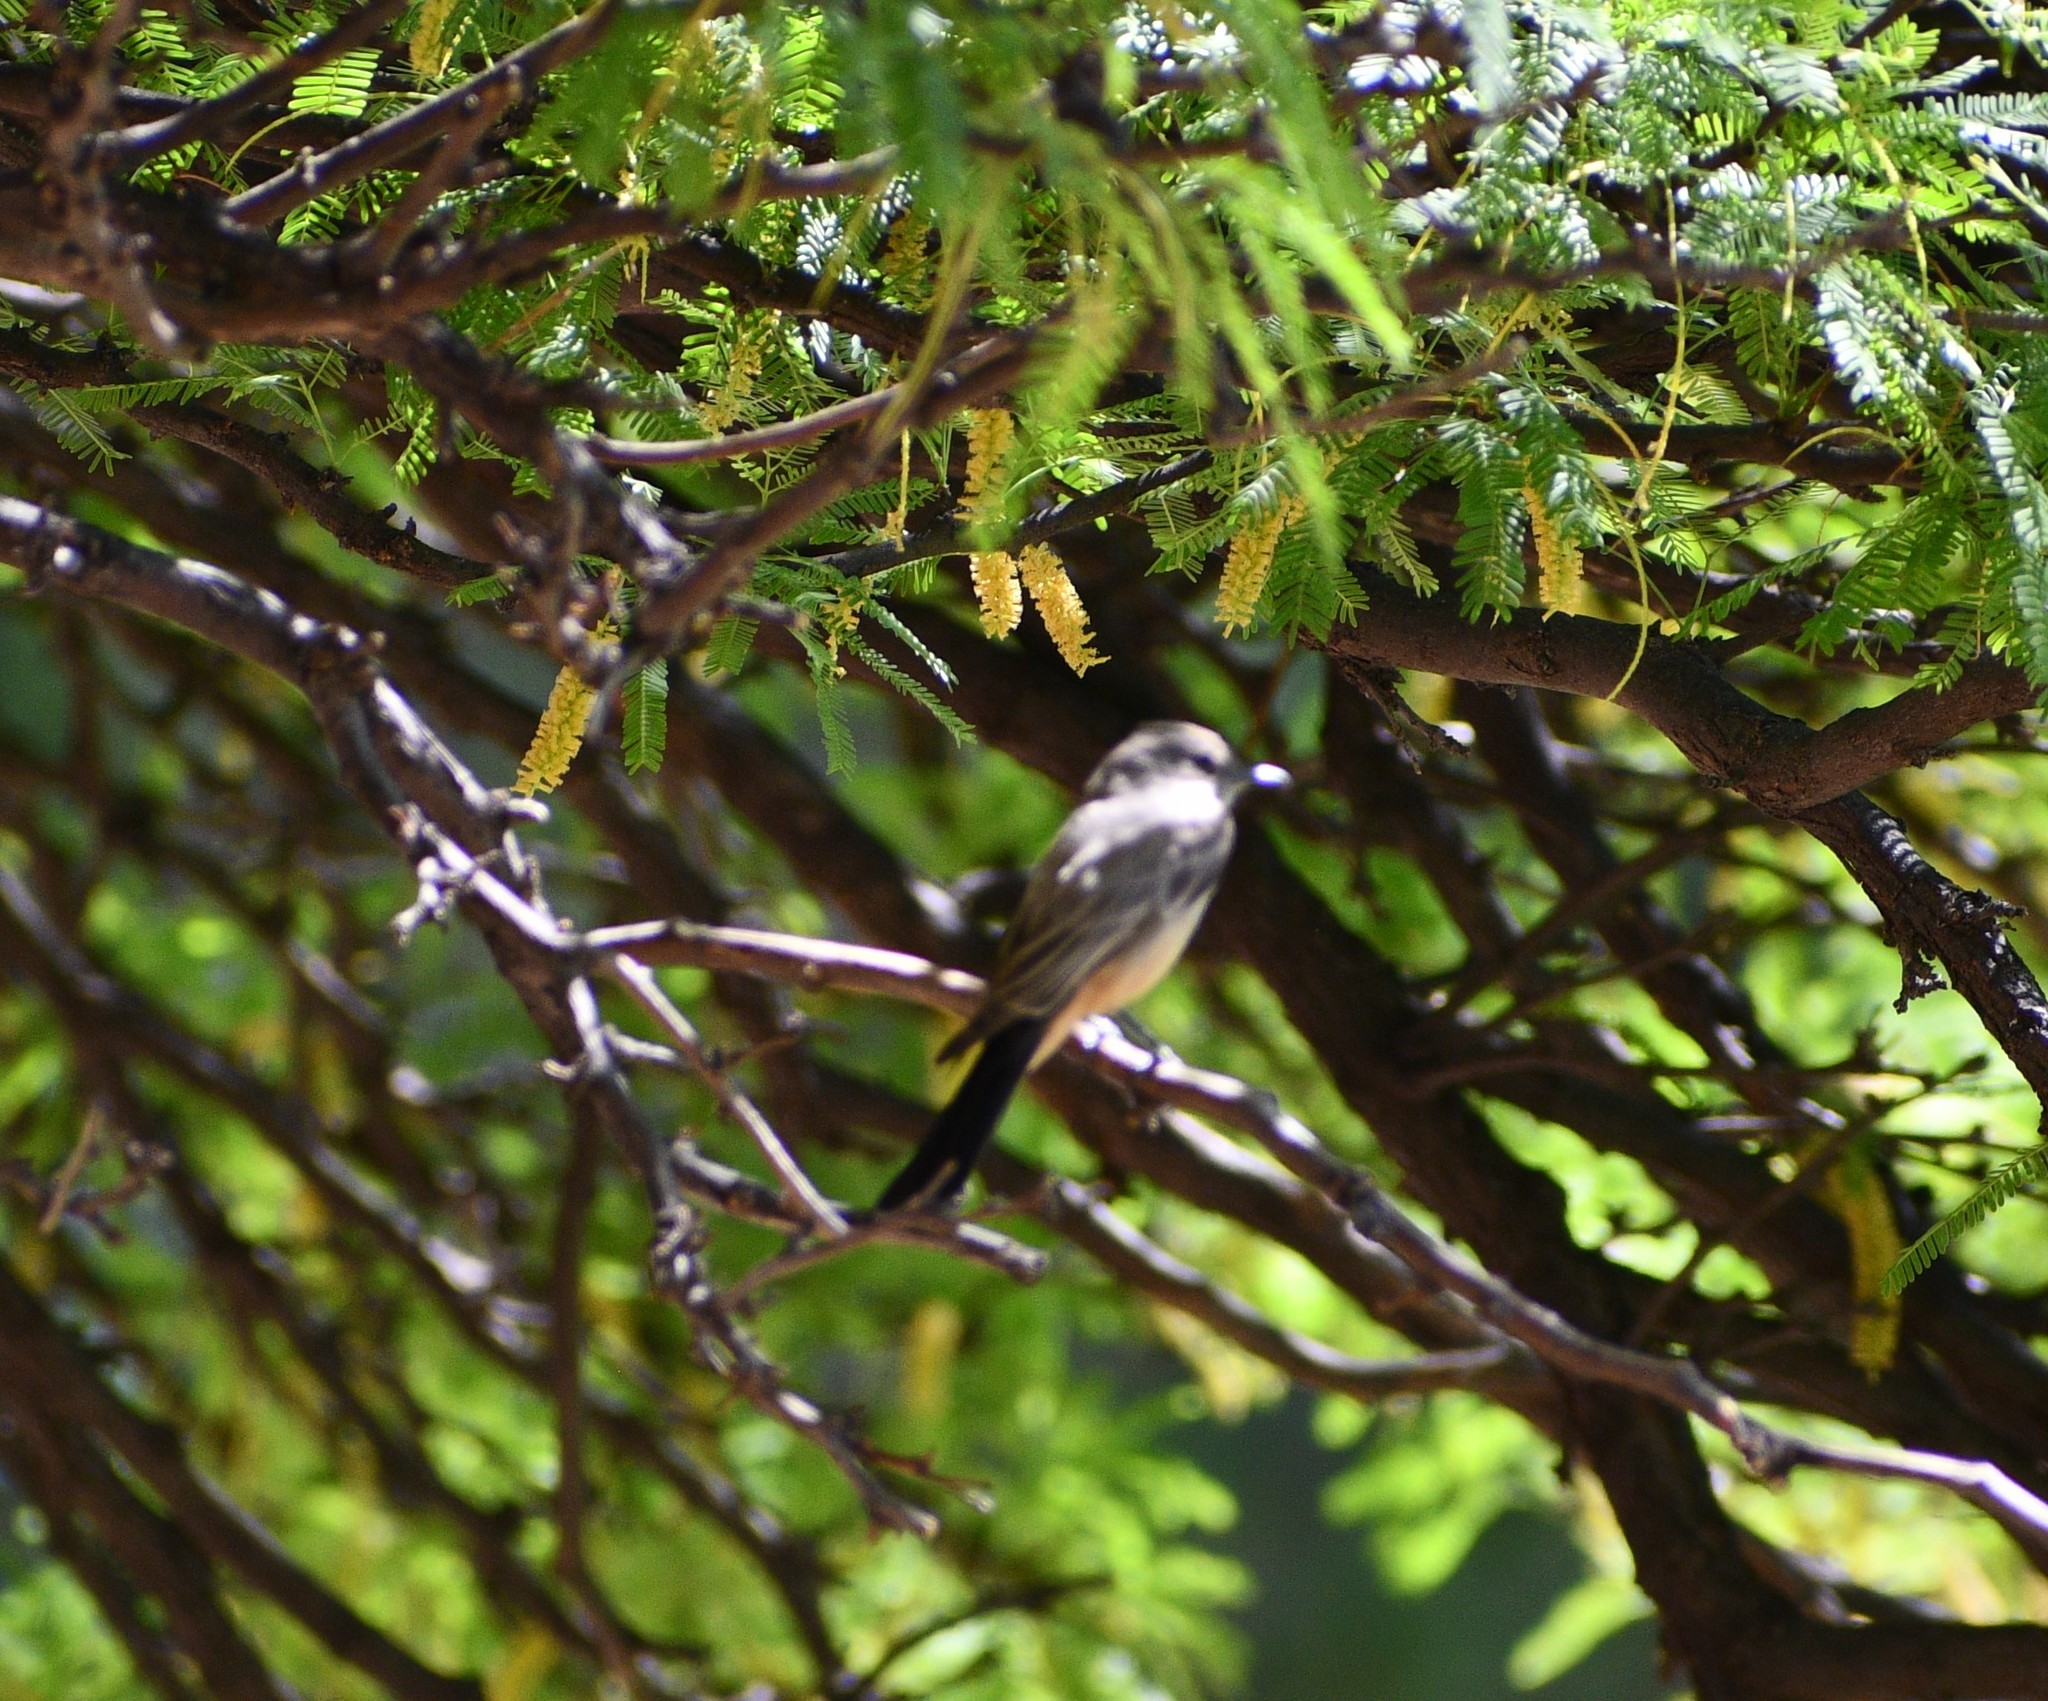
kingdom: Animalia
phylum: Chordata
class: Aves
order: Passeriformes
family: Tyrannidae
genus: Pyrocephalus
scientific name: Pyrocephalus rubinus
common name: Vermilion flycatcher
